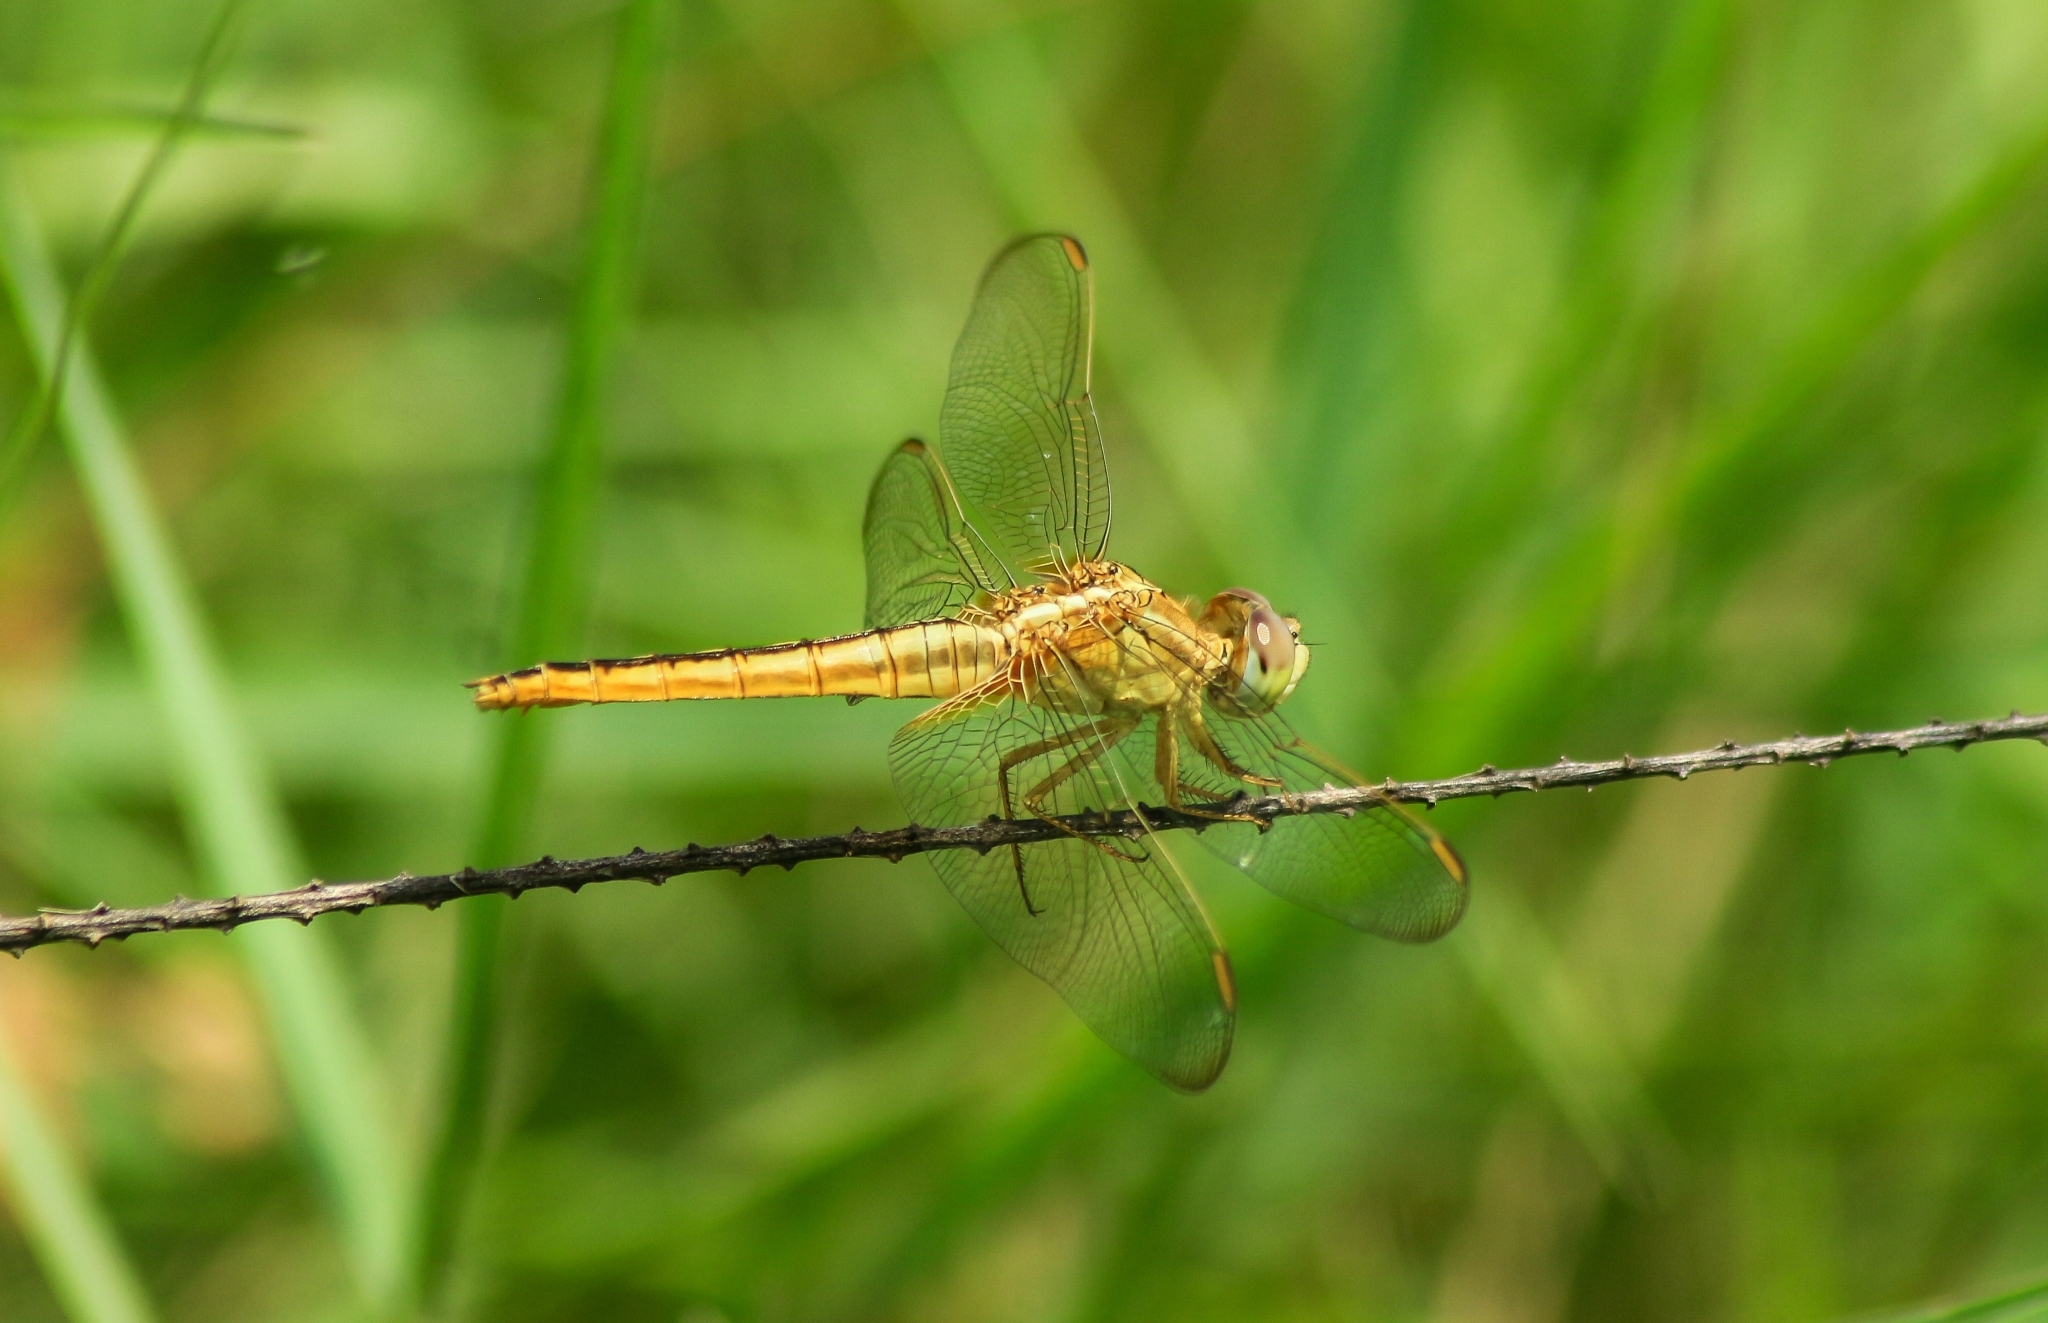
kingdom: Animalia
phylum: Arthropoda
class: Insecta
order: Odonata
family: Libellulidae
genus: Crocothemis
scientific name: Crocothemis servilia
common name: Scarlet skimmer
